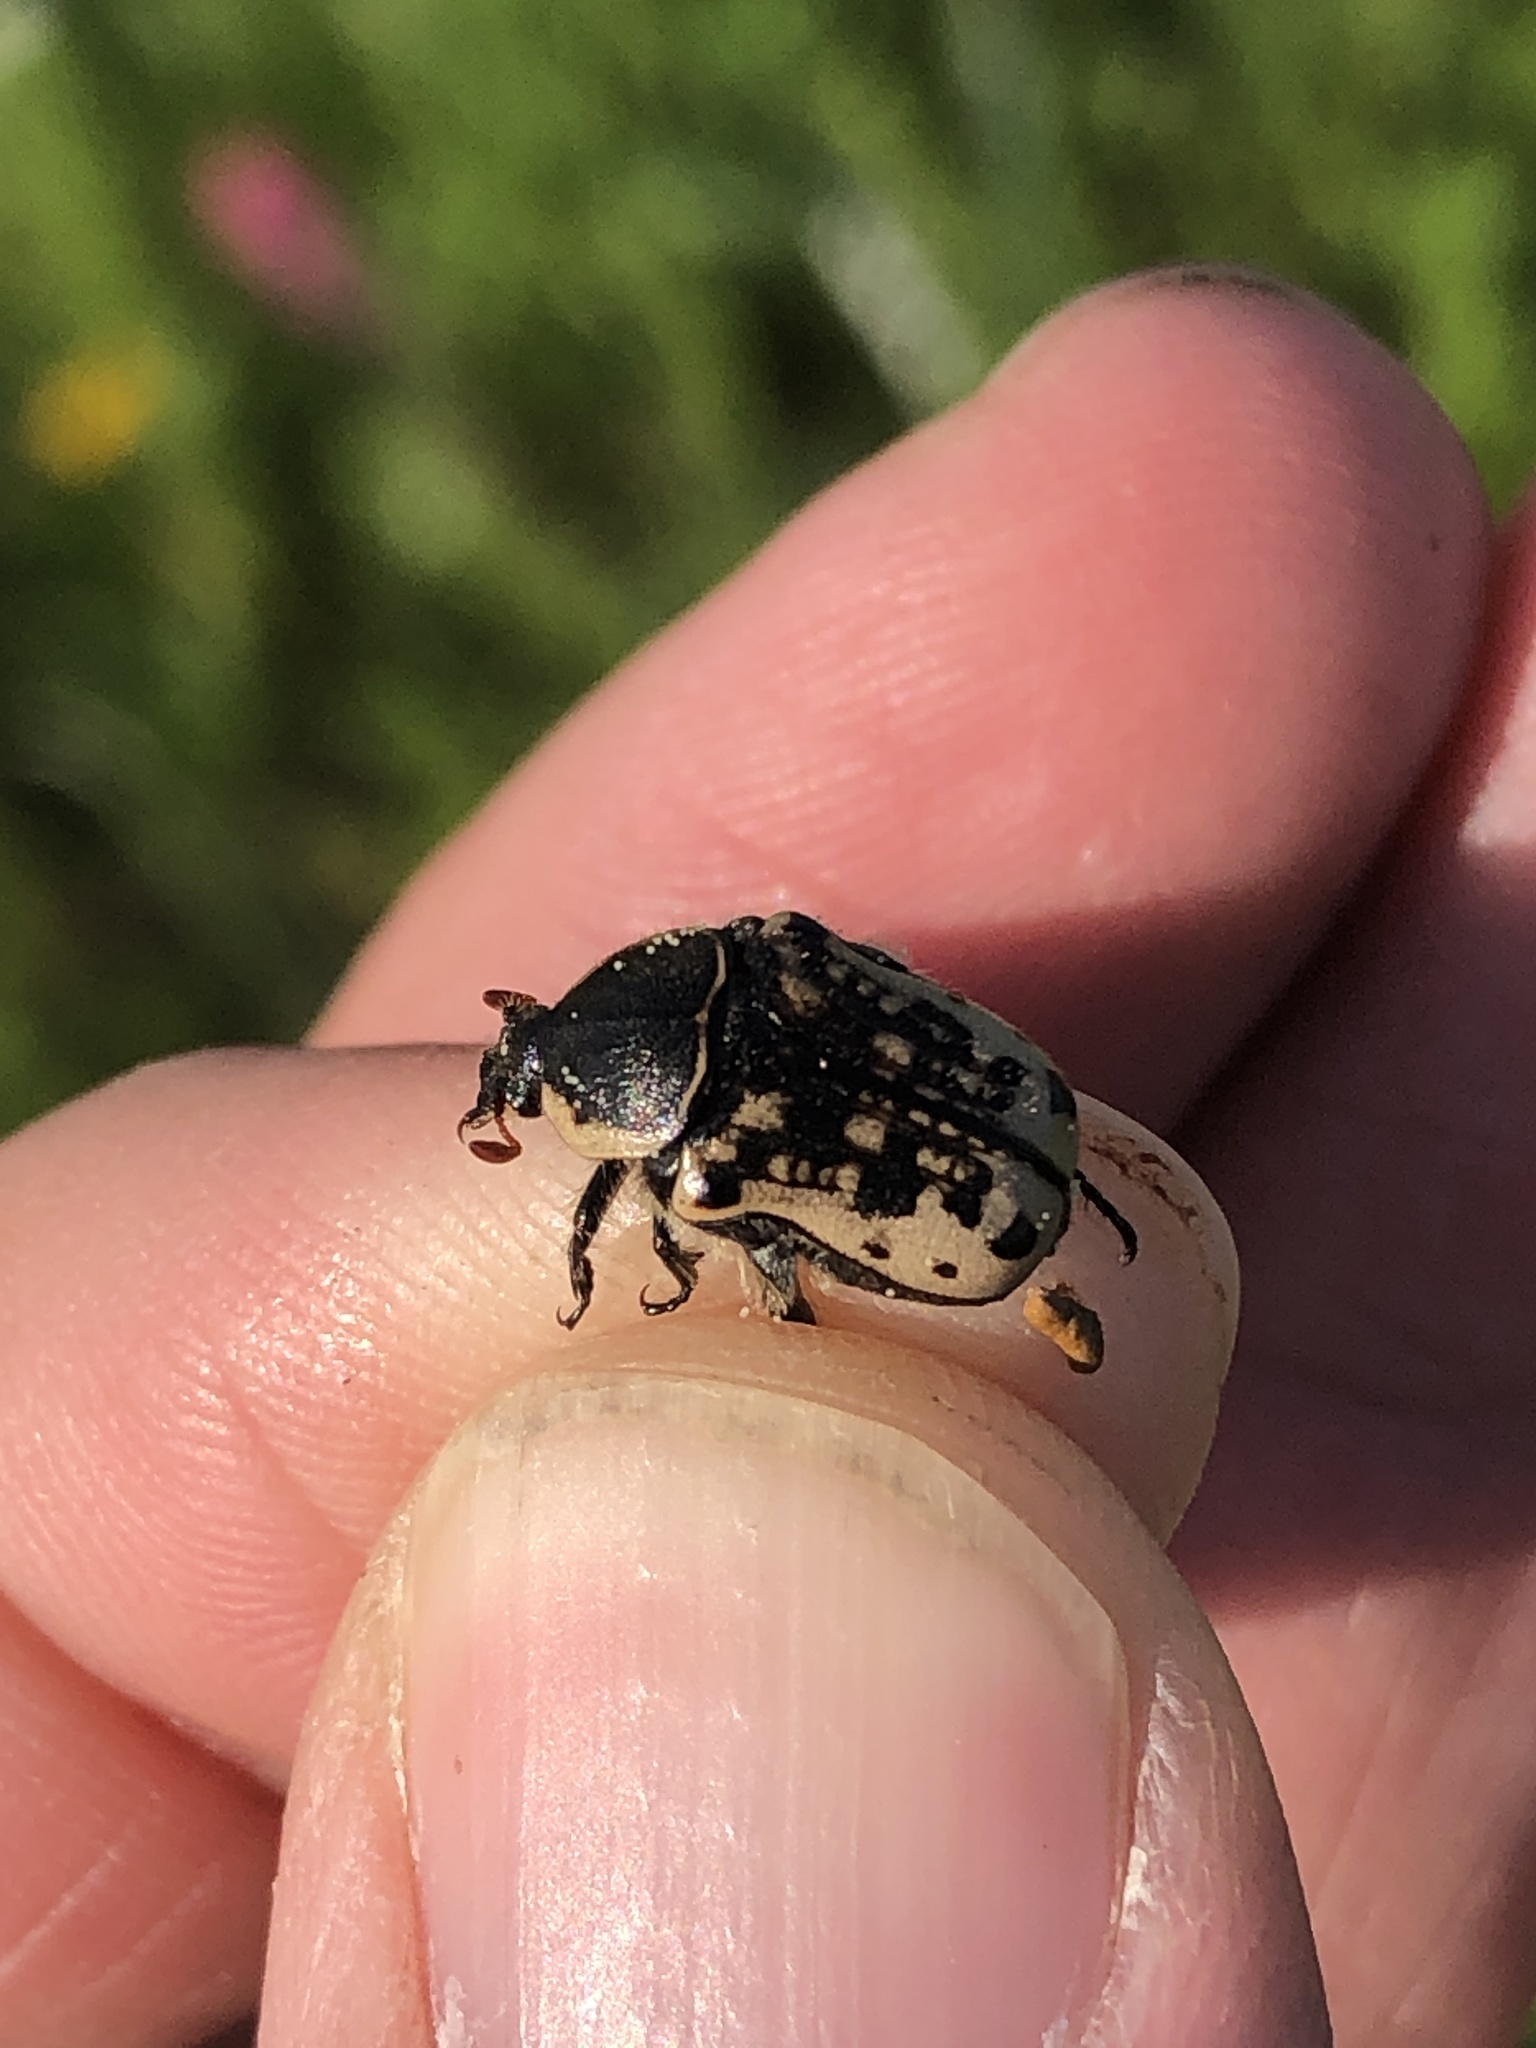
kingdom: Animalia
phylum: Arthropoda
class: Insecta
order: Coleoptera
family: Scarabaeidae
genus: Euphoria
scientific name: Euphoria kernii
